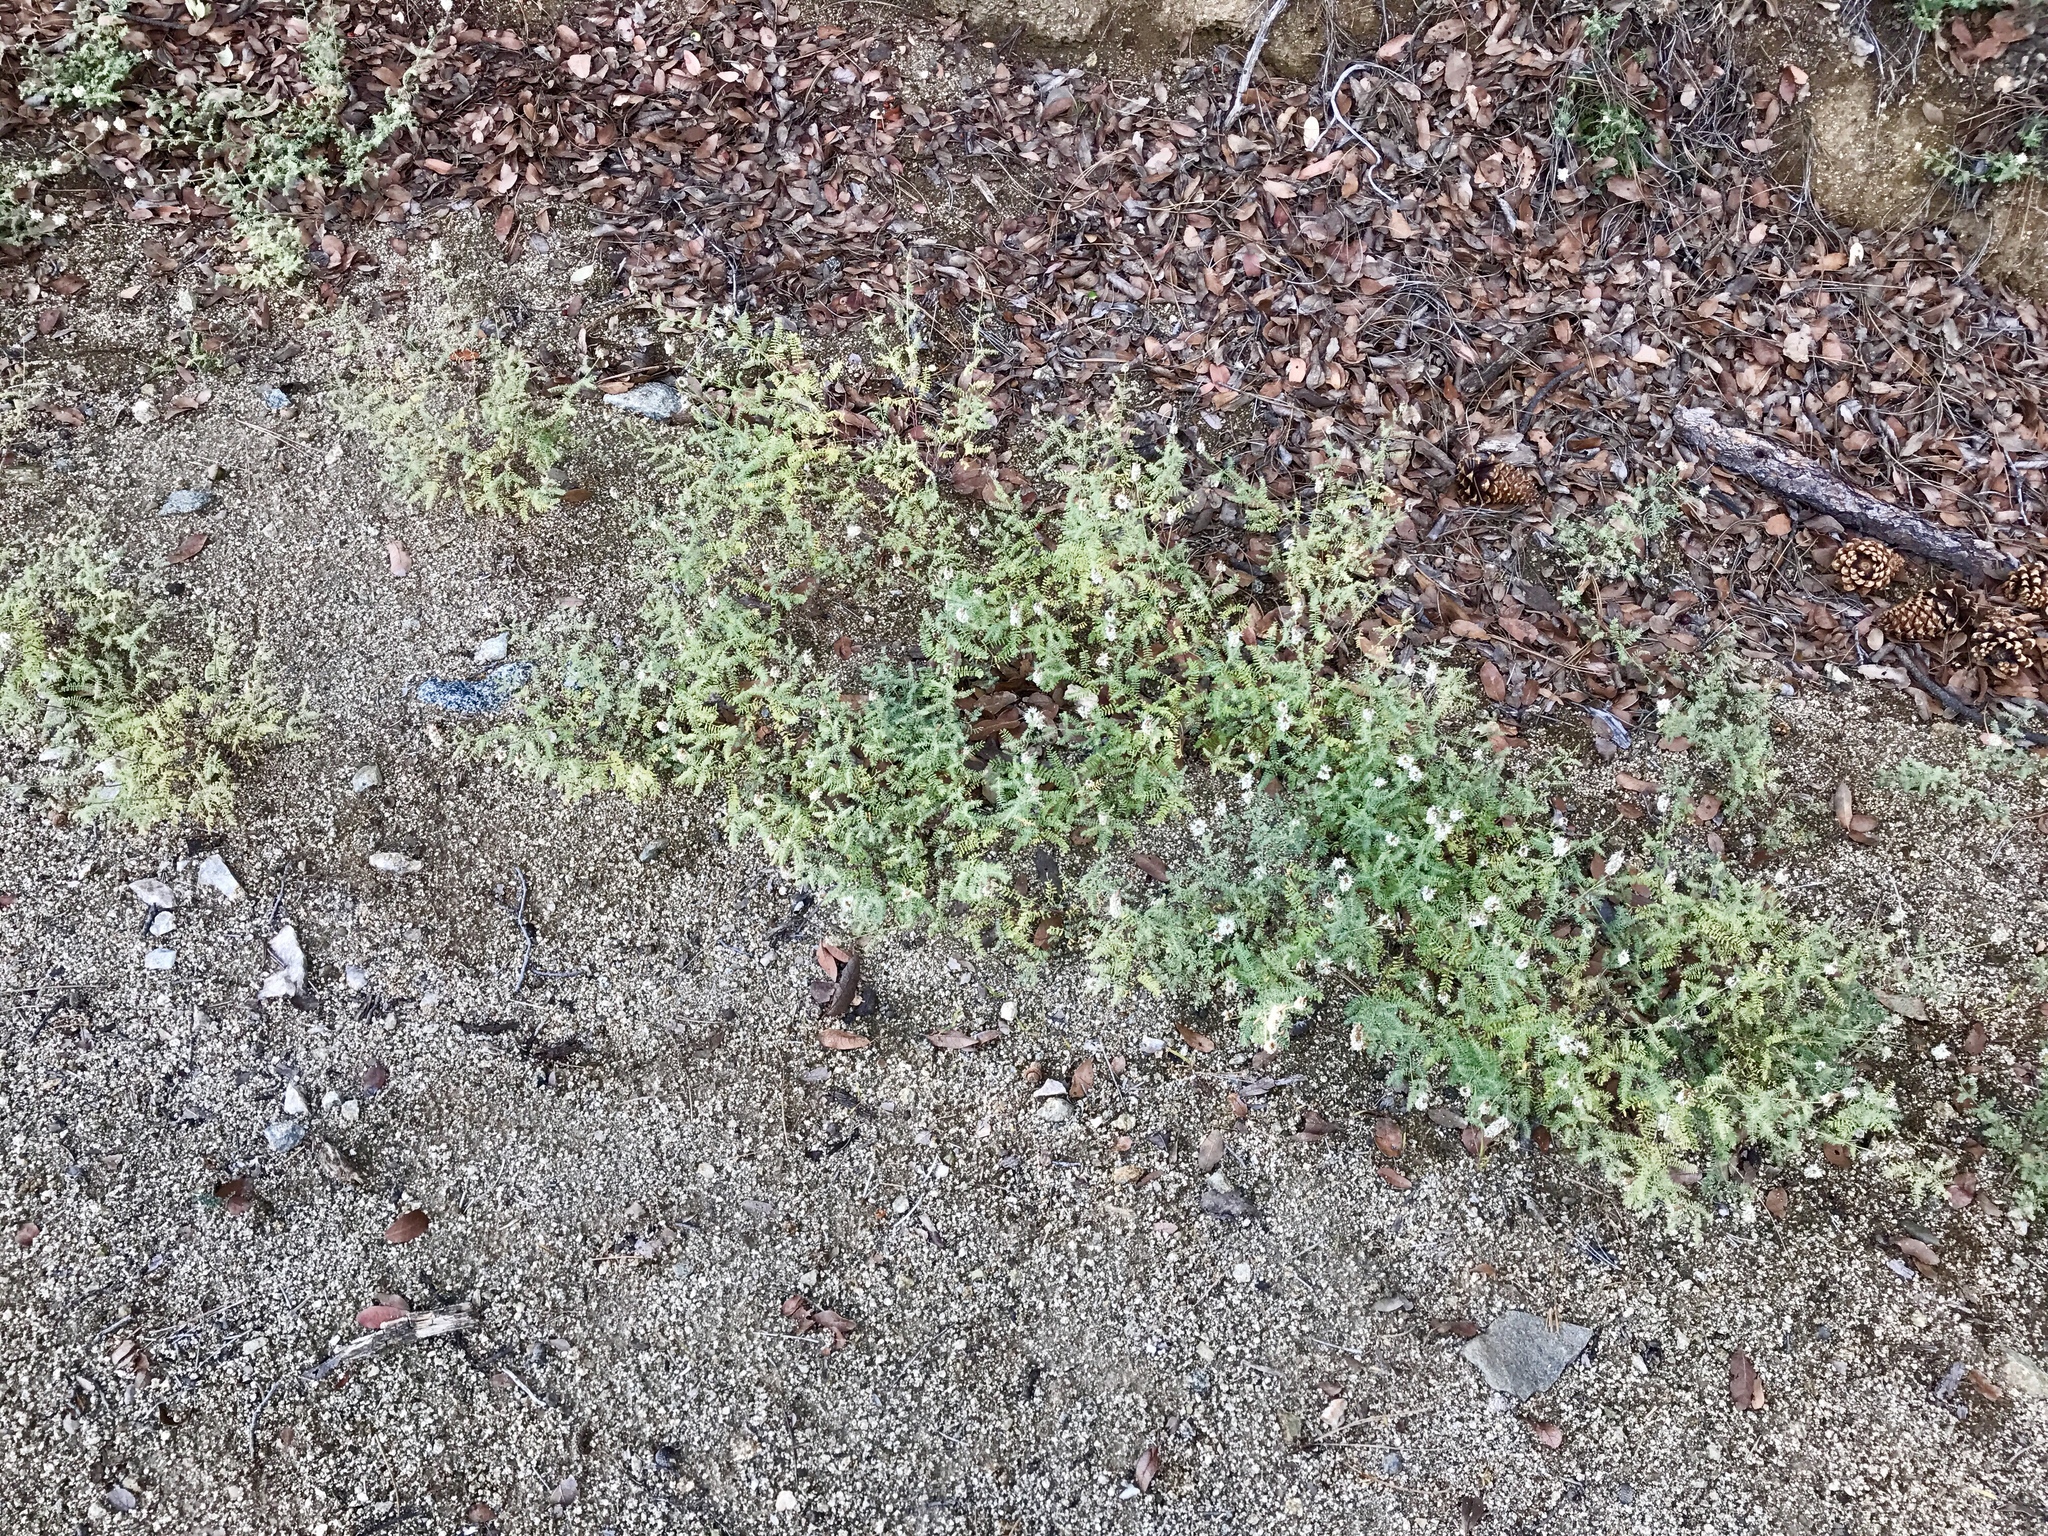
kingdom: Plantae
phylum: Tracheophyta
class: Magnoliopsida
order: Fabales
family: Fabaceae
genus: Dalea
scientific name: Dalea albiflora
